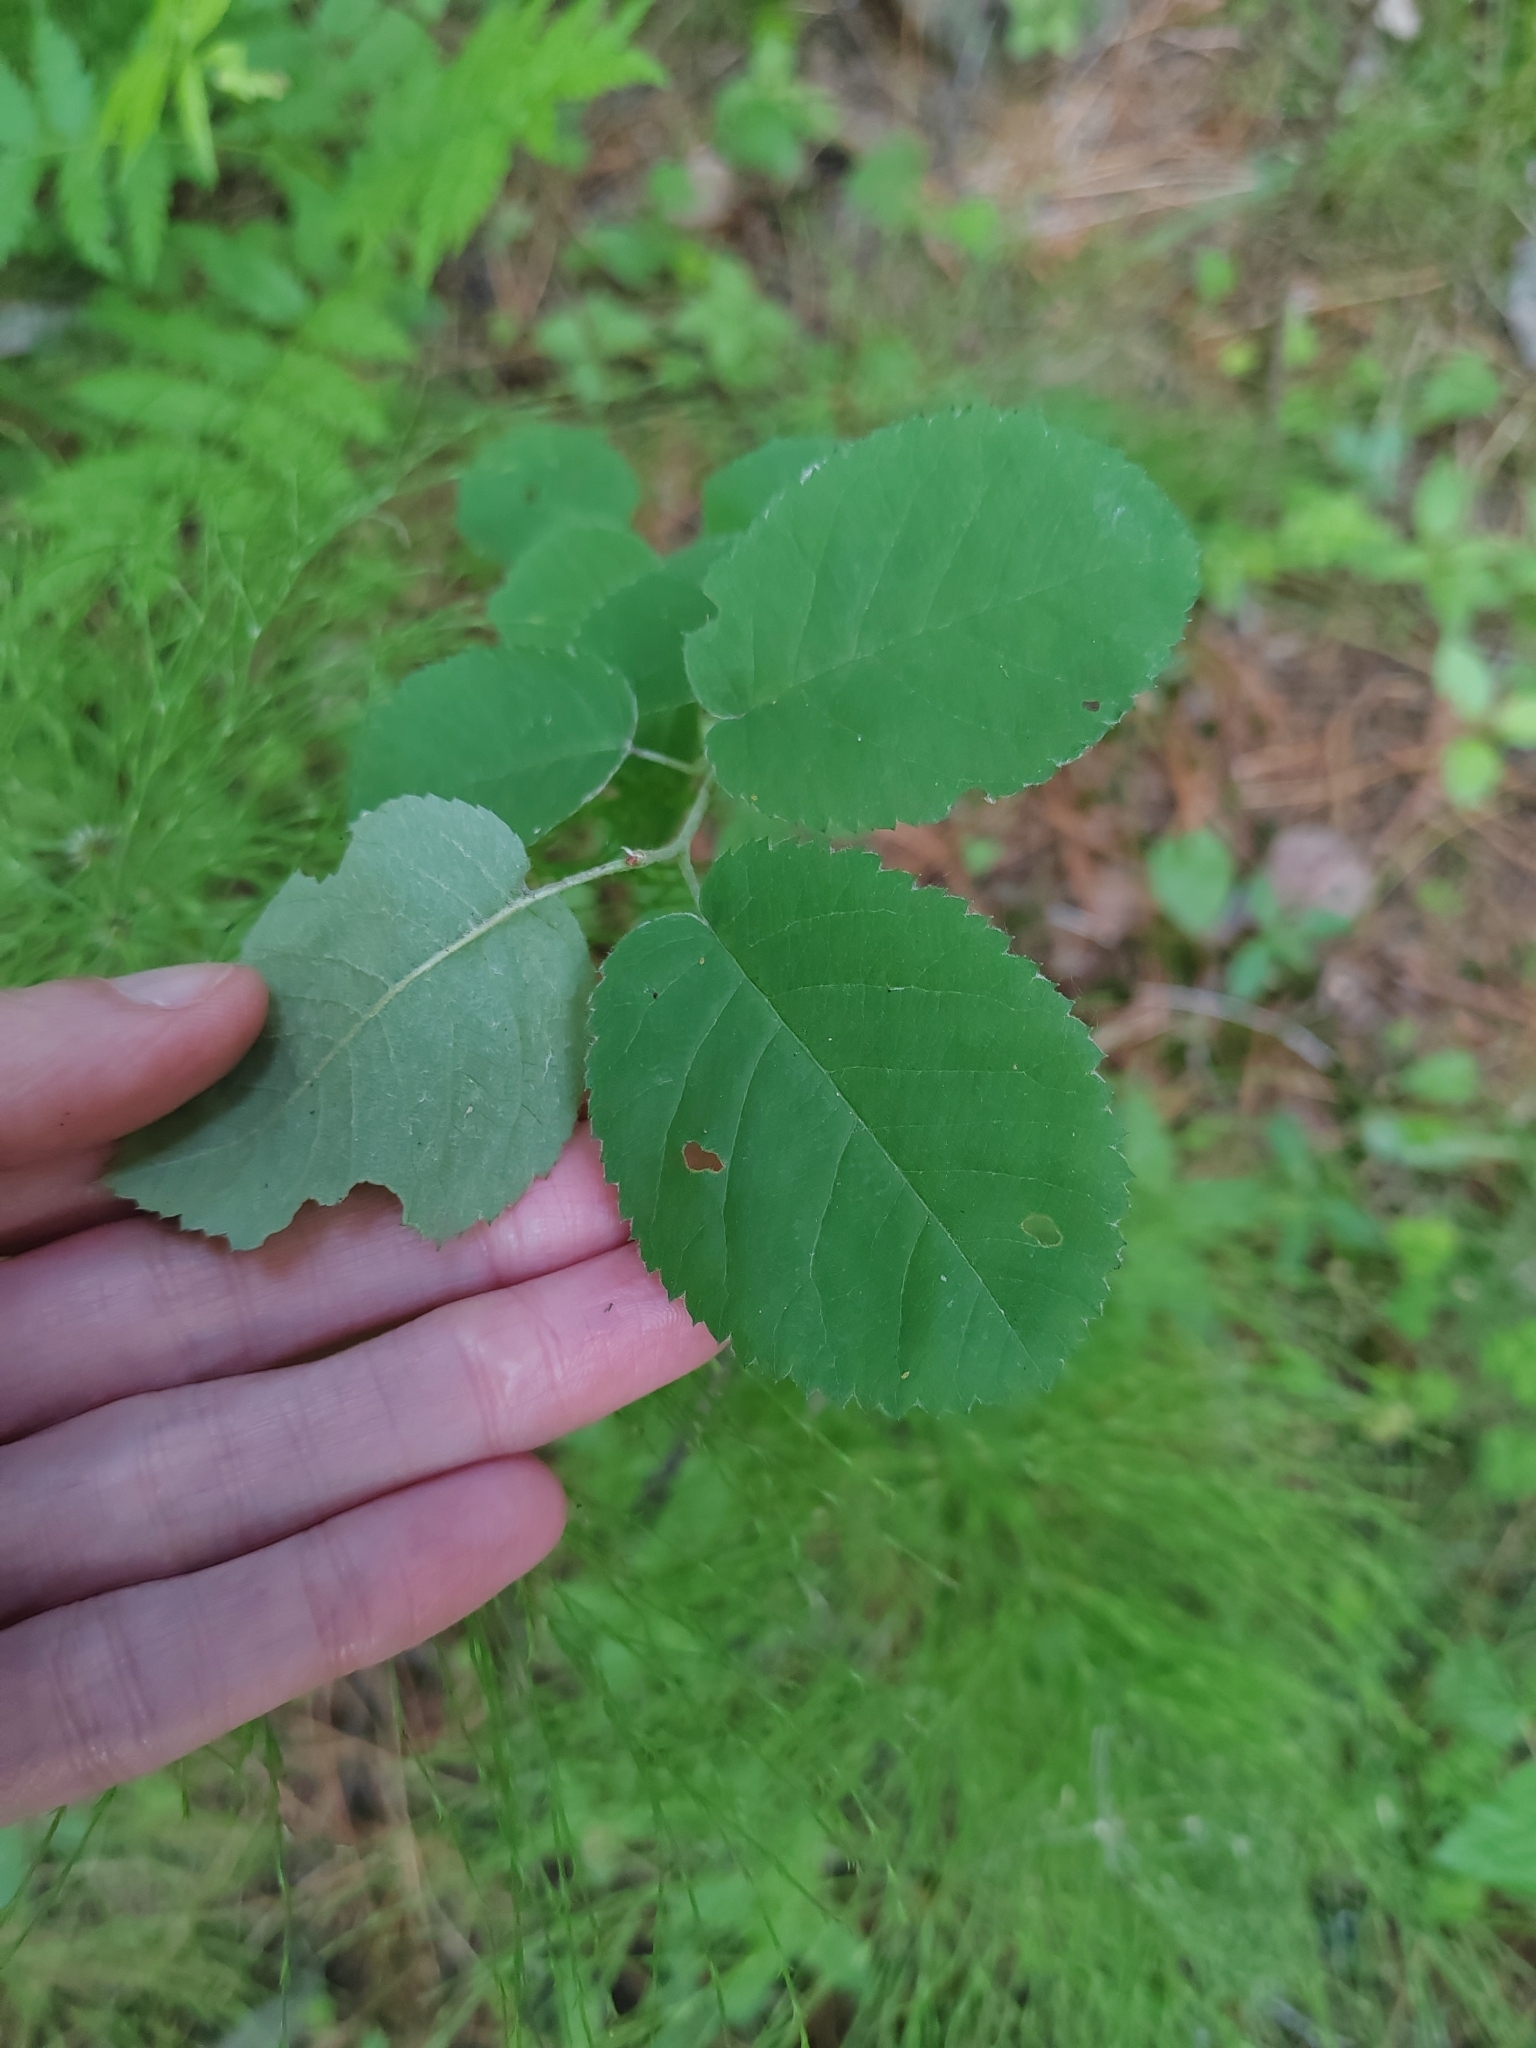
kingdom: Plantae
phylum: Tracheophyta
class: Magnoliopsida
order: Rosales
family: Rosaceae
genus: Amelanchier
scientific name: Amelanchier
